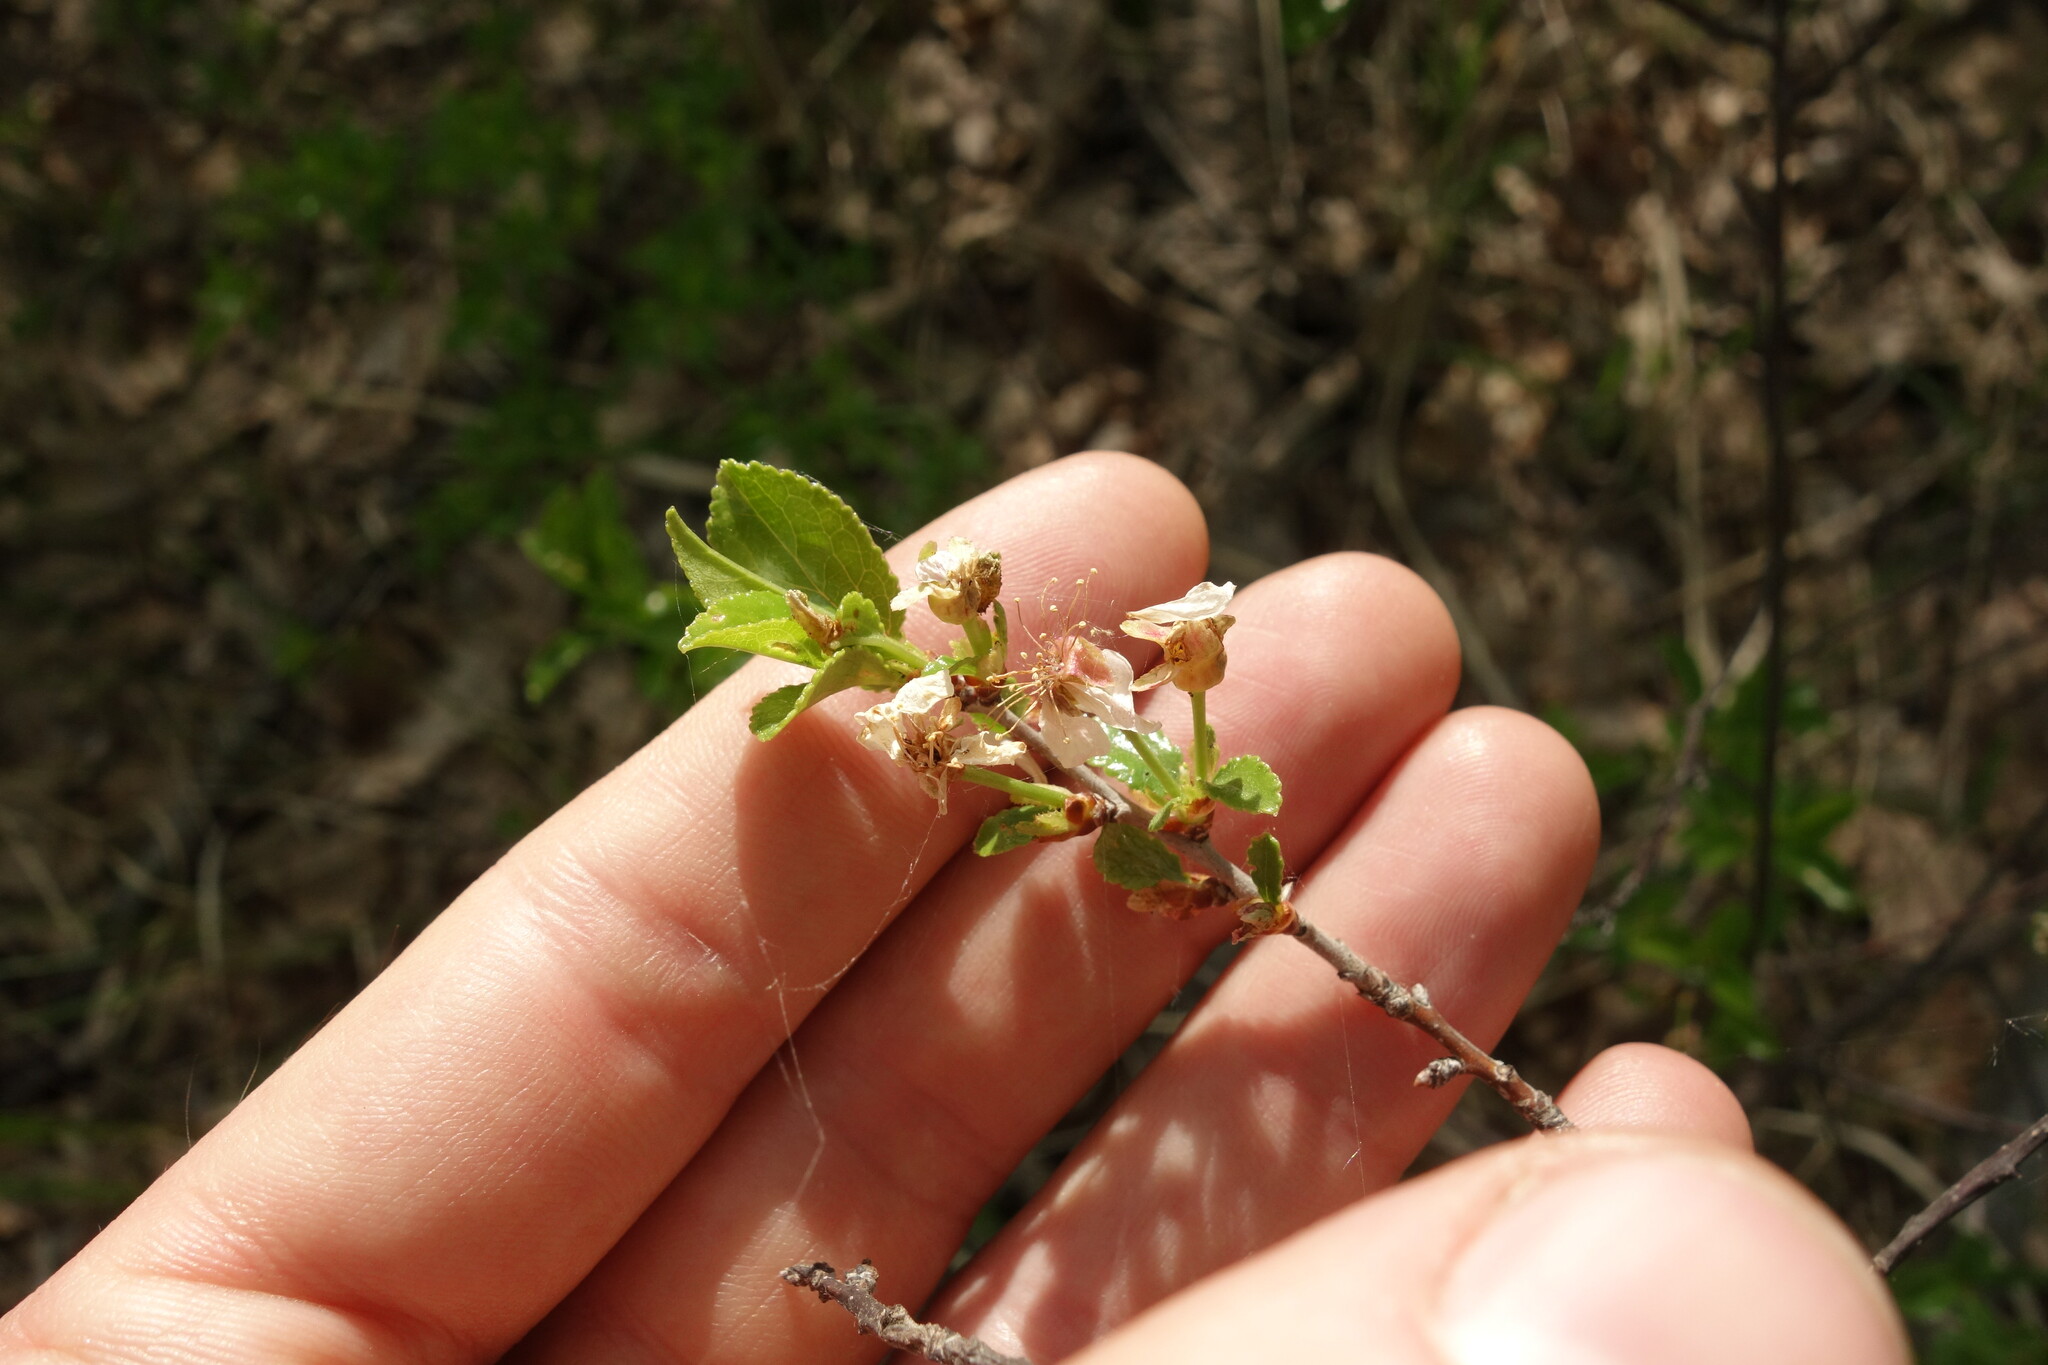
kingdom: Plantae
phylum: Tracheophyta
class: Magnoliopsida
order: Rosales
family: Rosaceae
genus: Prunus
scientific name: Prunus fruticosa
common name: European dwarf cherry
